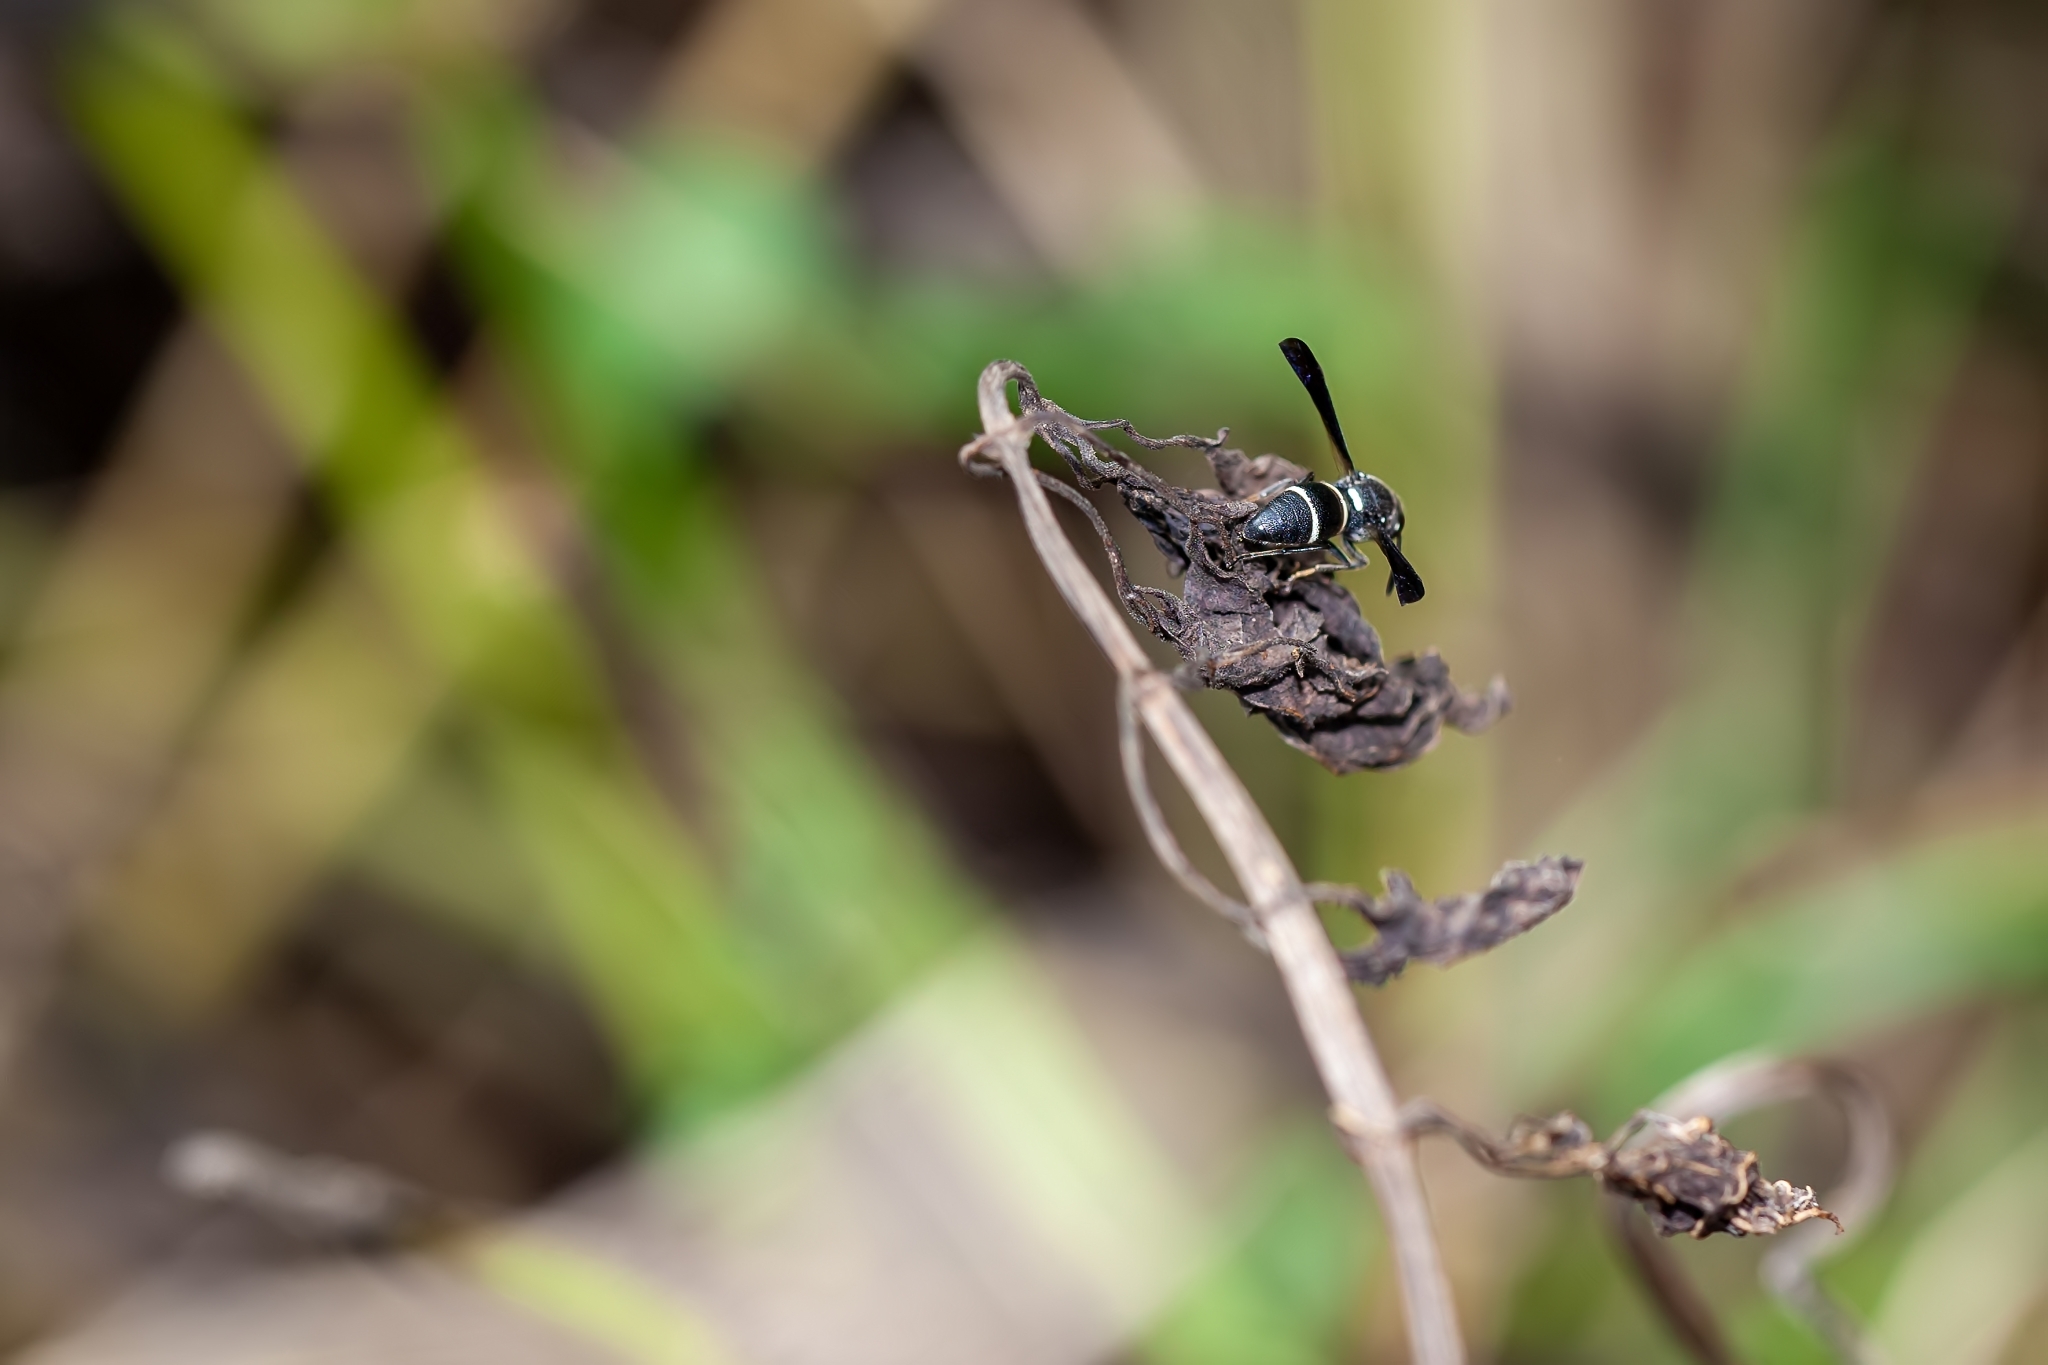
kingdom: Animalia
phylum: Arthropoda
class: Insecta
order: Hymenoptera
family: Eumenidae
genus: Euodynerus
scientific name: Euodynerus megaera
